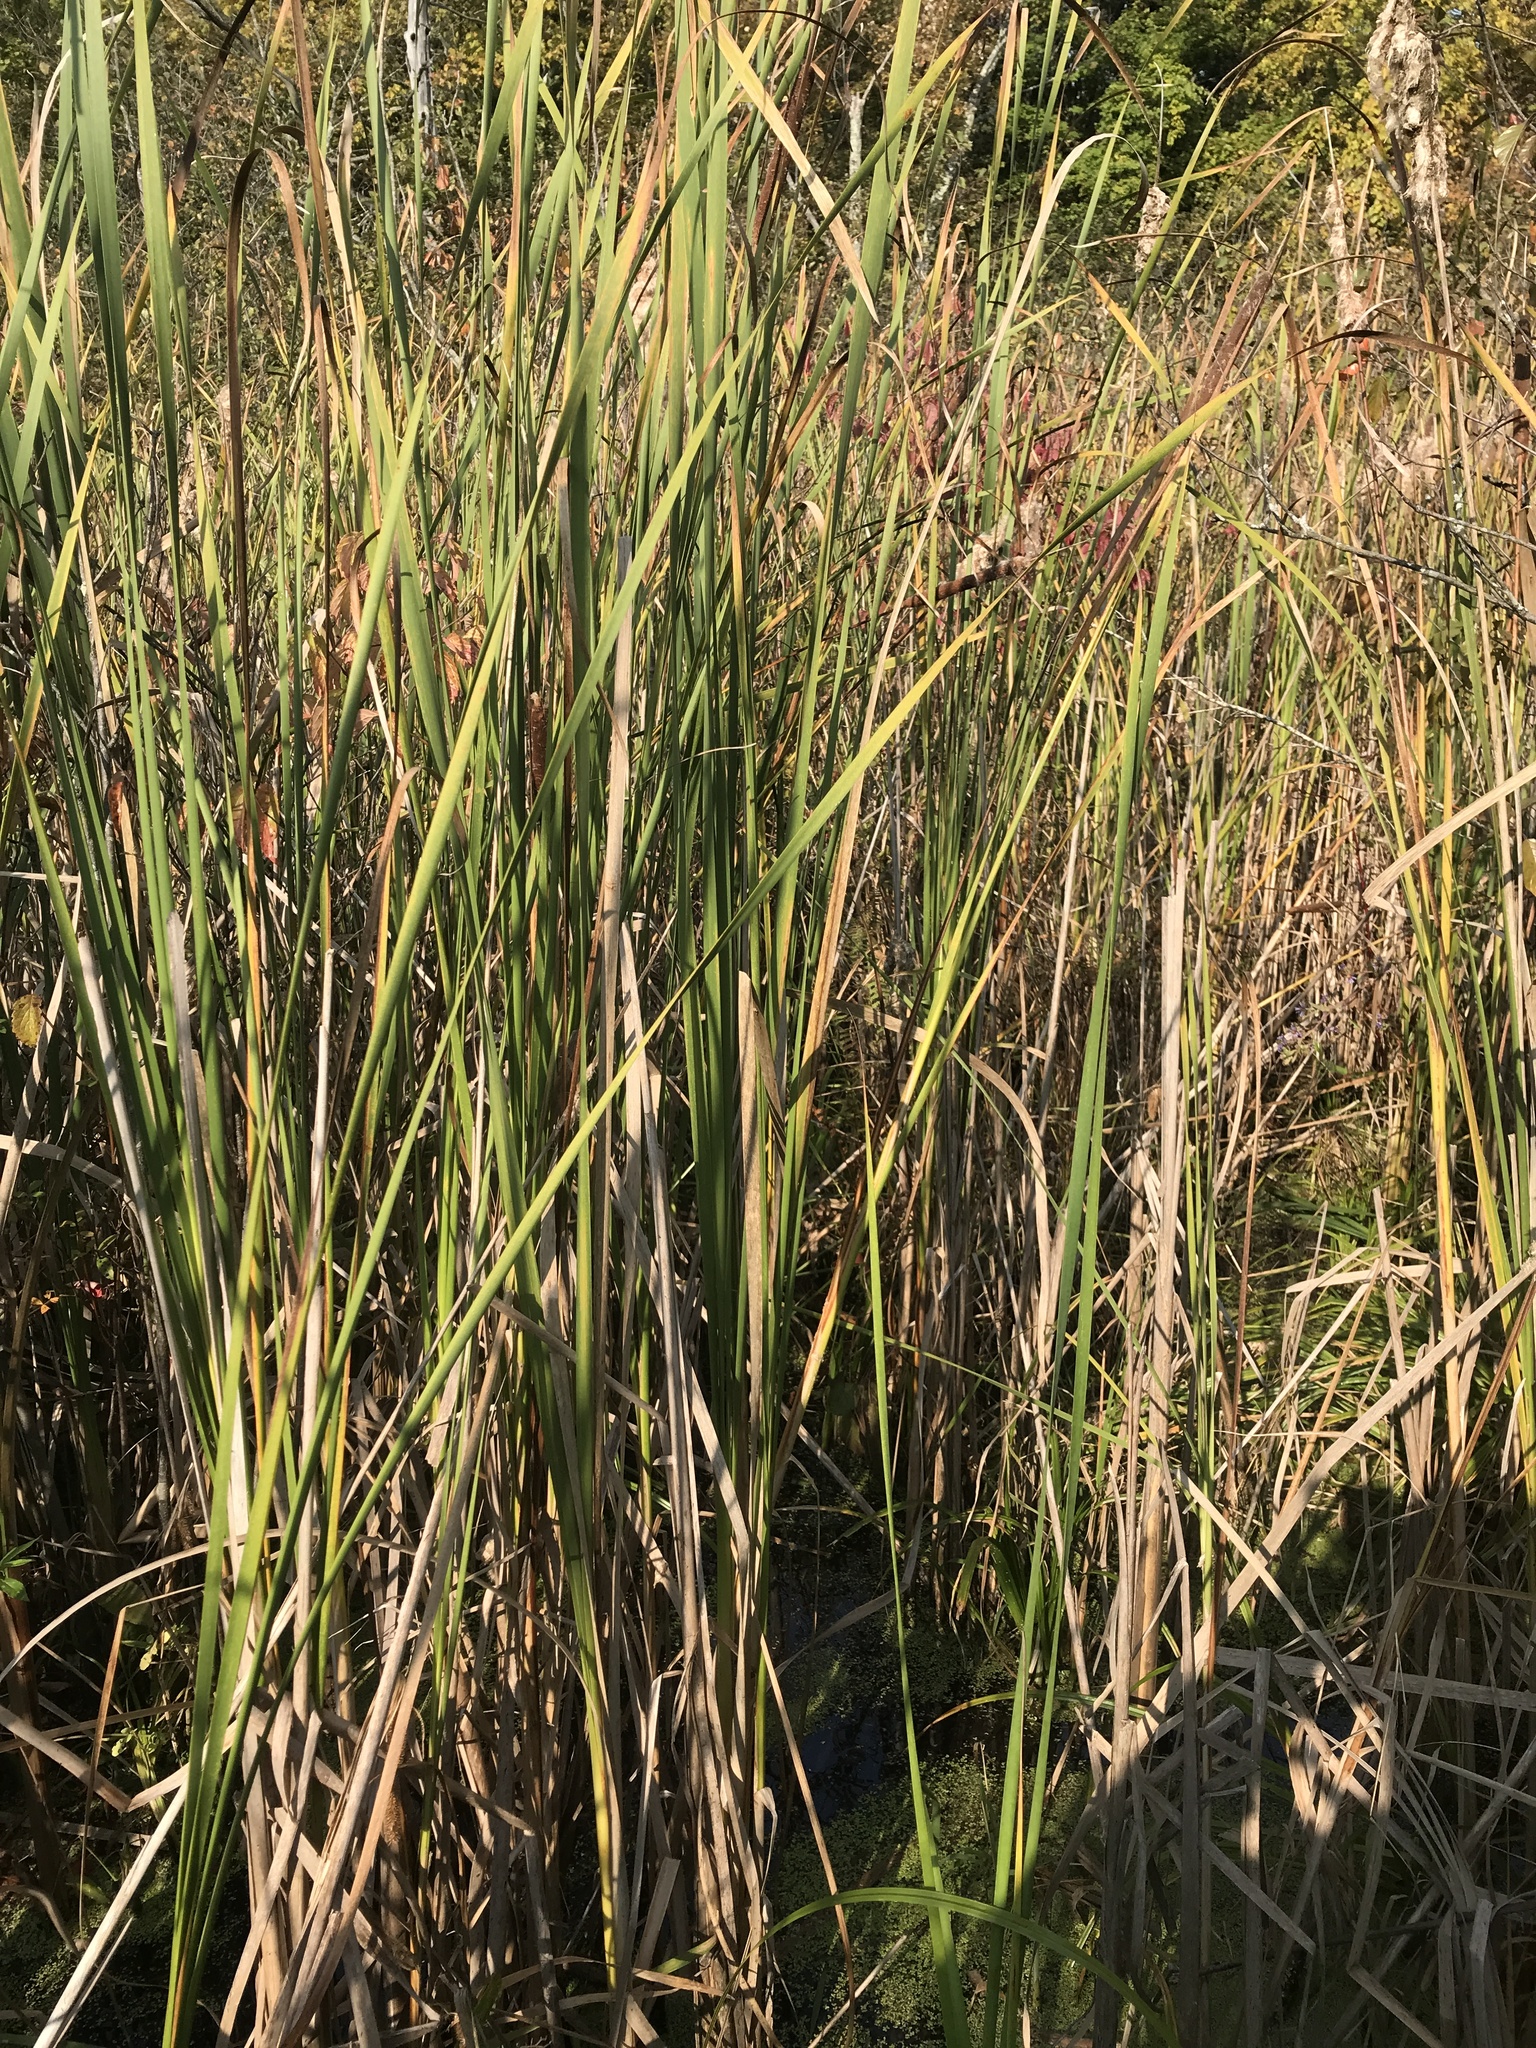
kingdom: Plantae
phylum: Tracheophyta
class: Liliopsida
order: Poales
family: Typhaceae
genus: Typha
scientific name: Typha angustifolia
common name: Lesser bulrush
